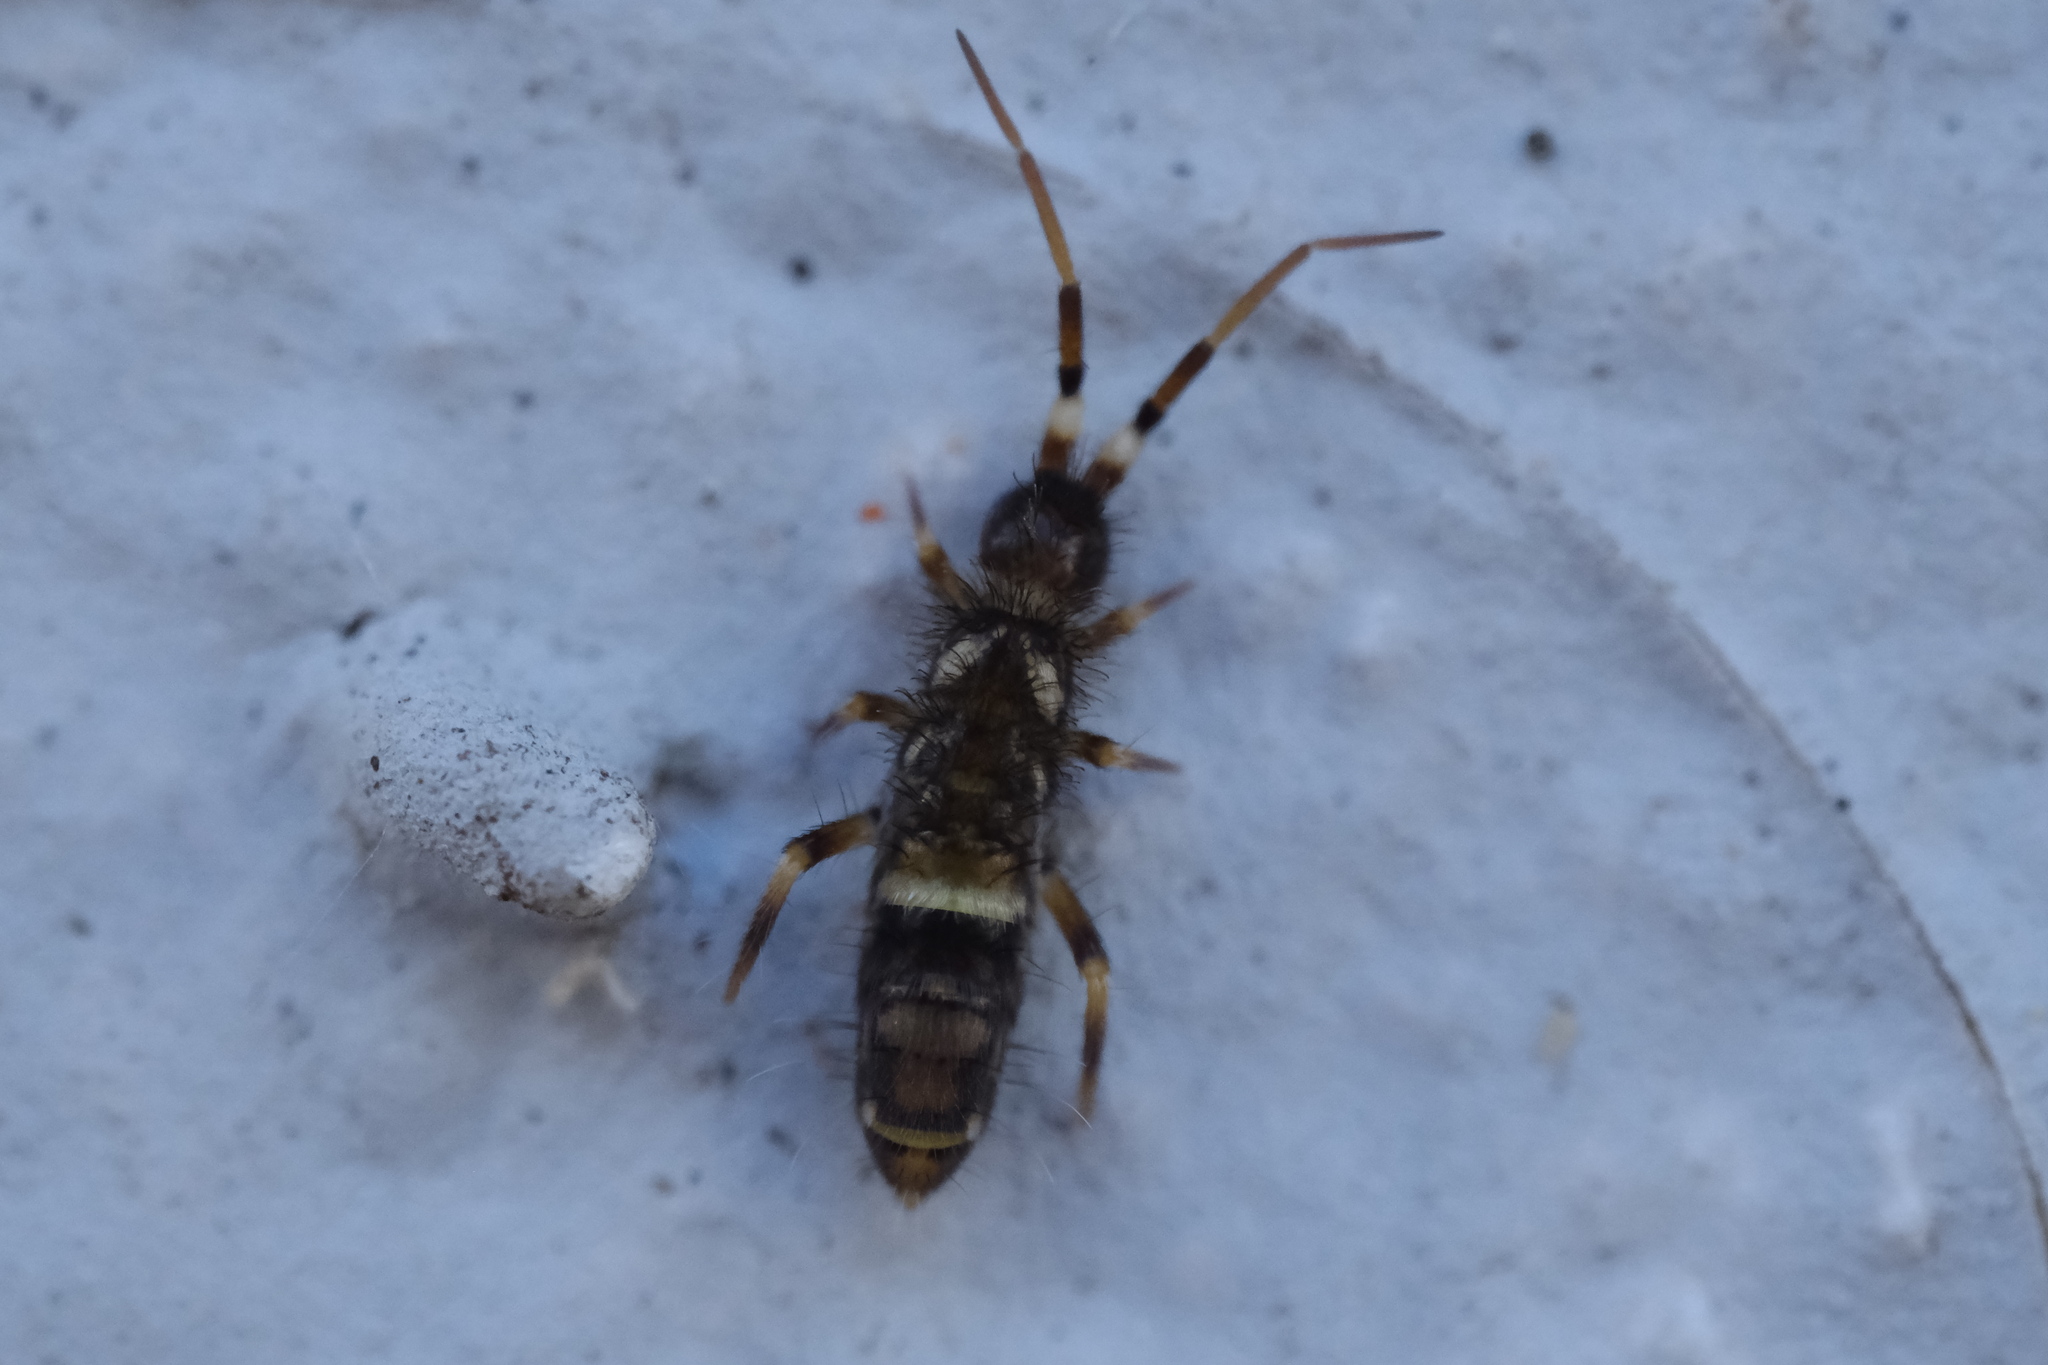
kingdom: Animalia
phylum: Arthropoda
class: Collembola
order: Entomobryomorpha
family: Orchesellidae
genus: Orchesella
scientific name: Orchesella cincta
